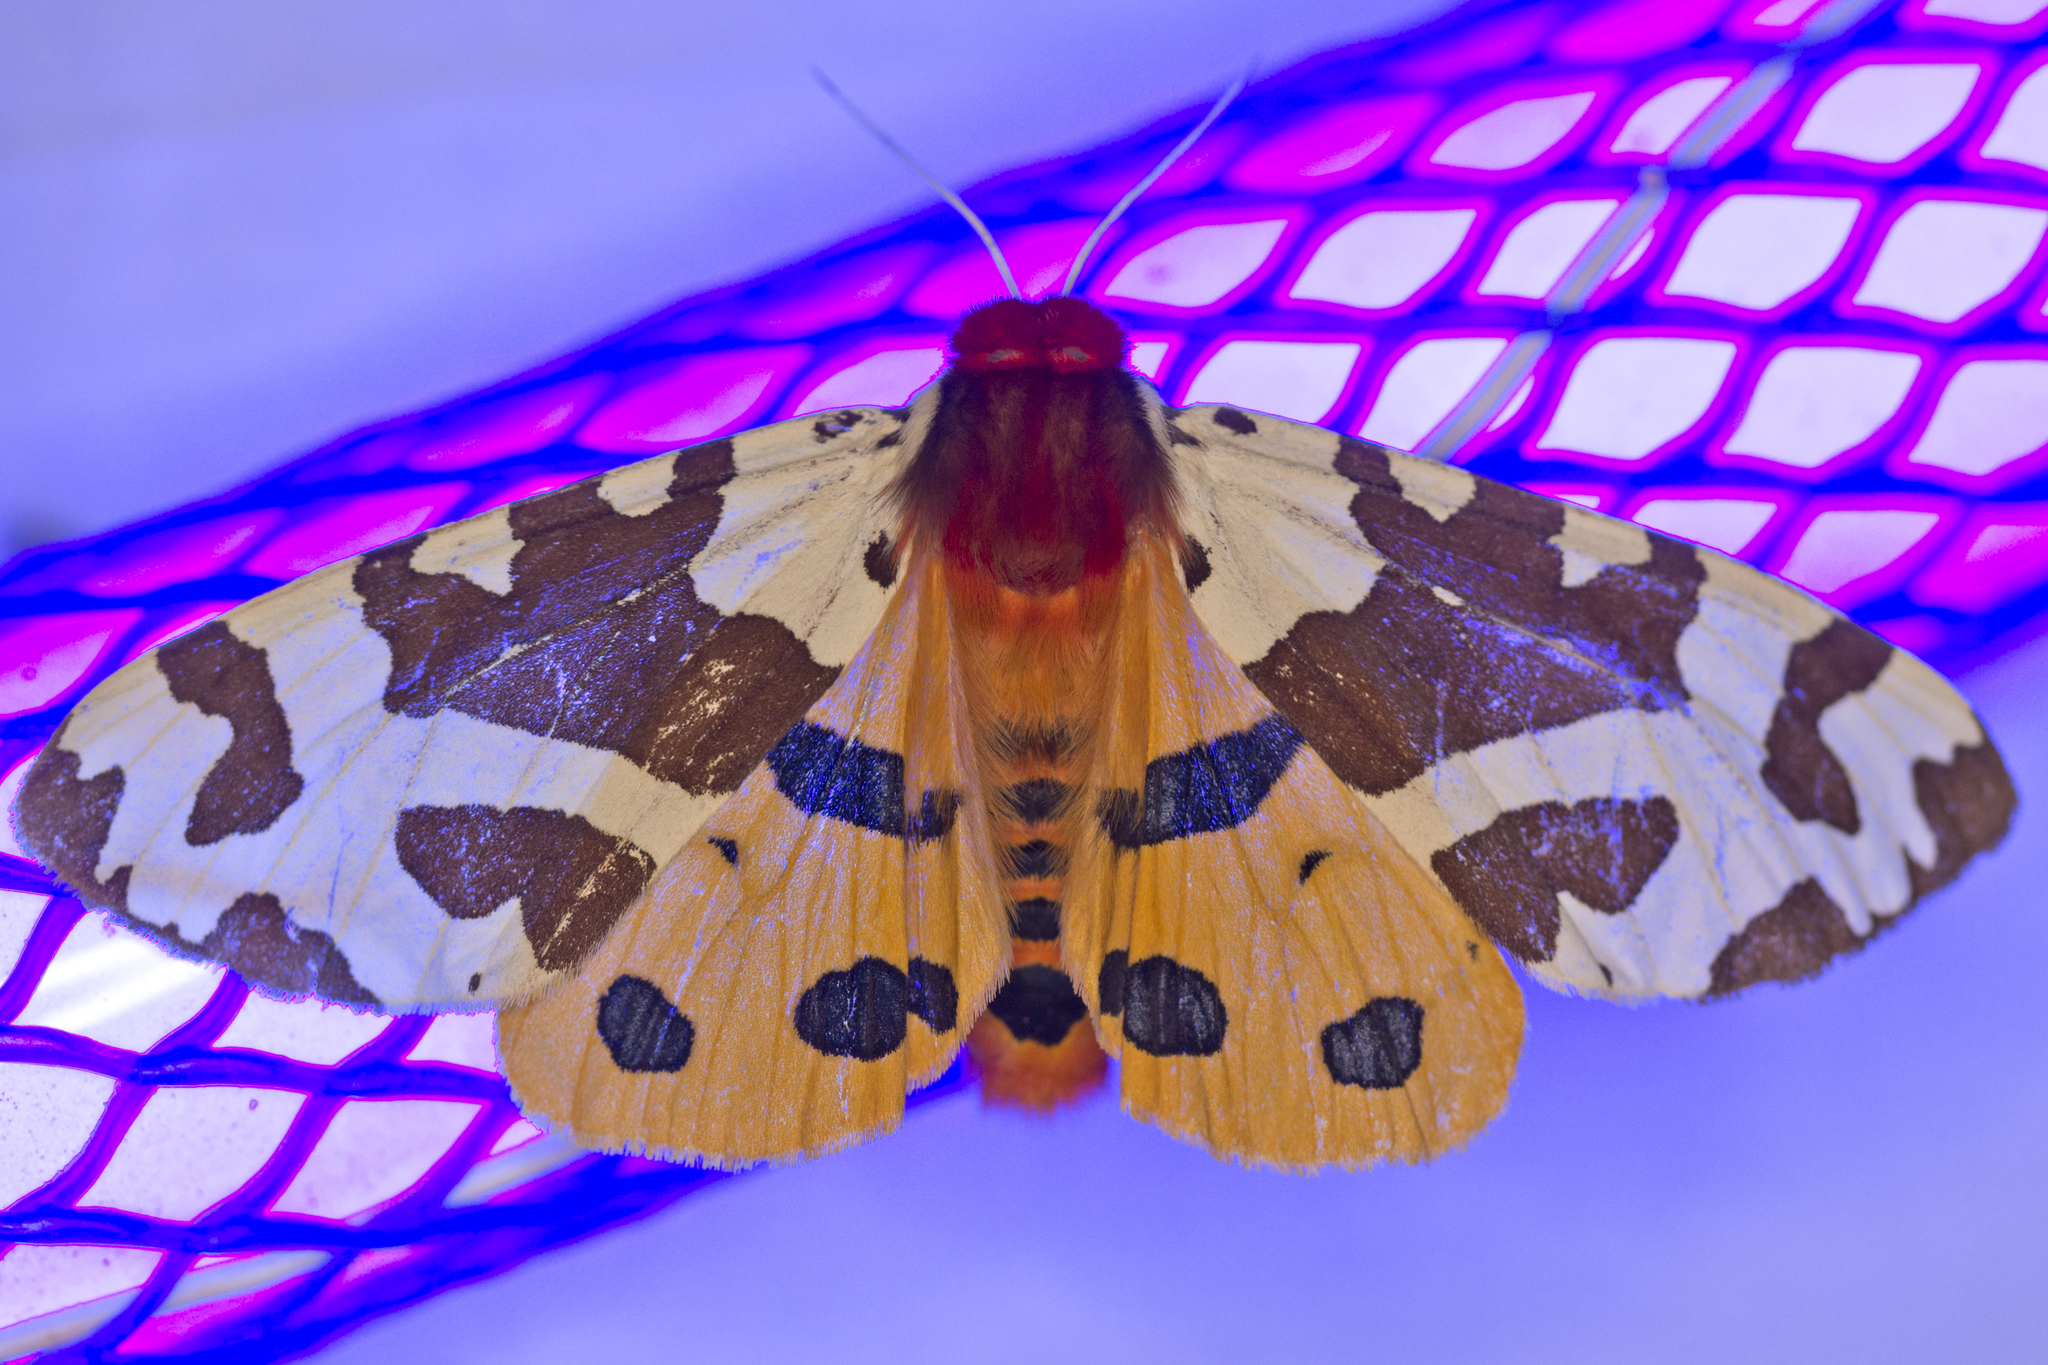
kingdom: Animalia
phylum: Arthropoda
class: Insecta
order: Lepidoptera
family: Erebidae
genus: Arctia
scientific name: Arctia caja
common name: Garden tiger
